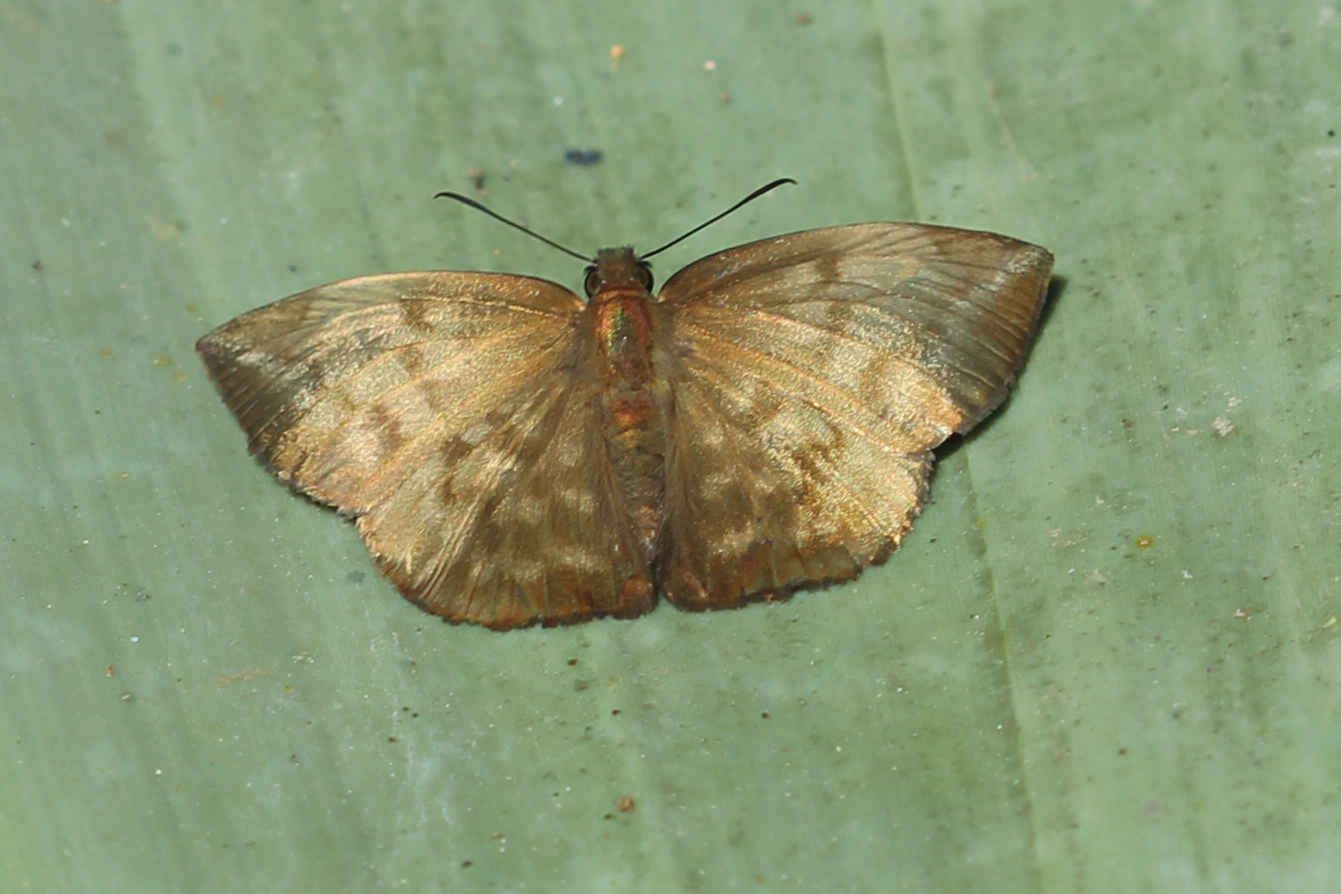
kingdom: Animalia
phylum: Arthropoda
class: Insecta
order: Lepidoptera
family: Hesperiidae
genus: Achlyodes
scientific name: Achlyodes pallida
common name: Pale sicklewing
